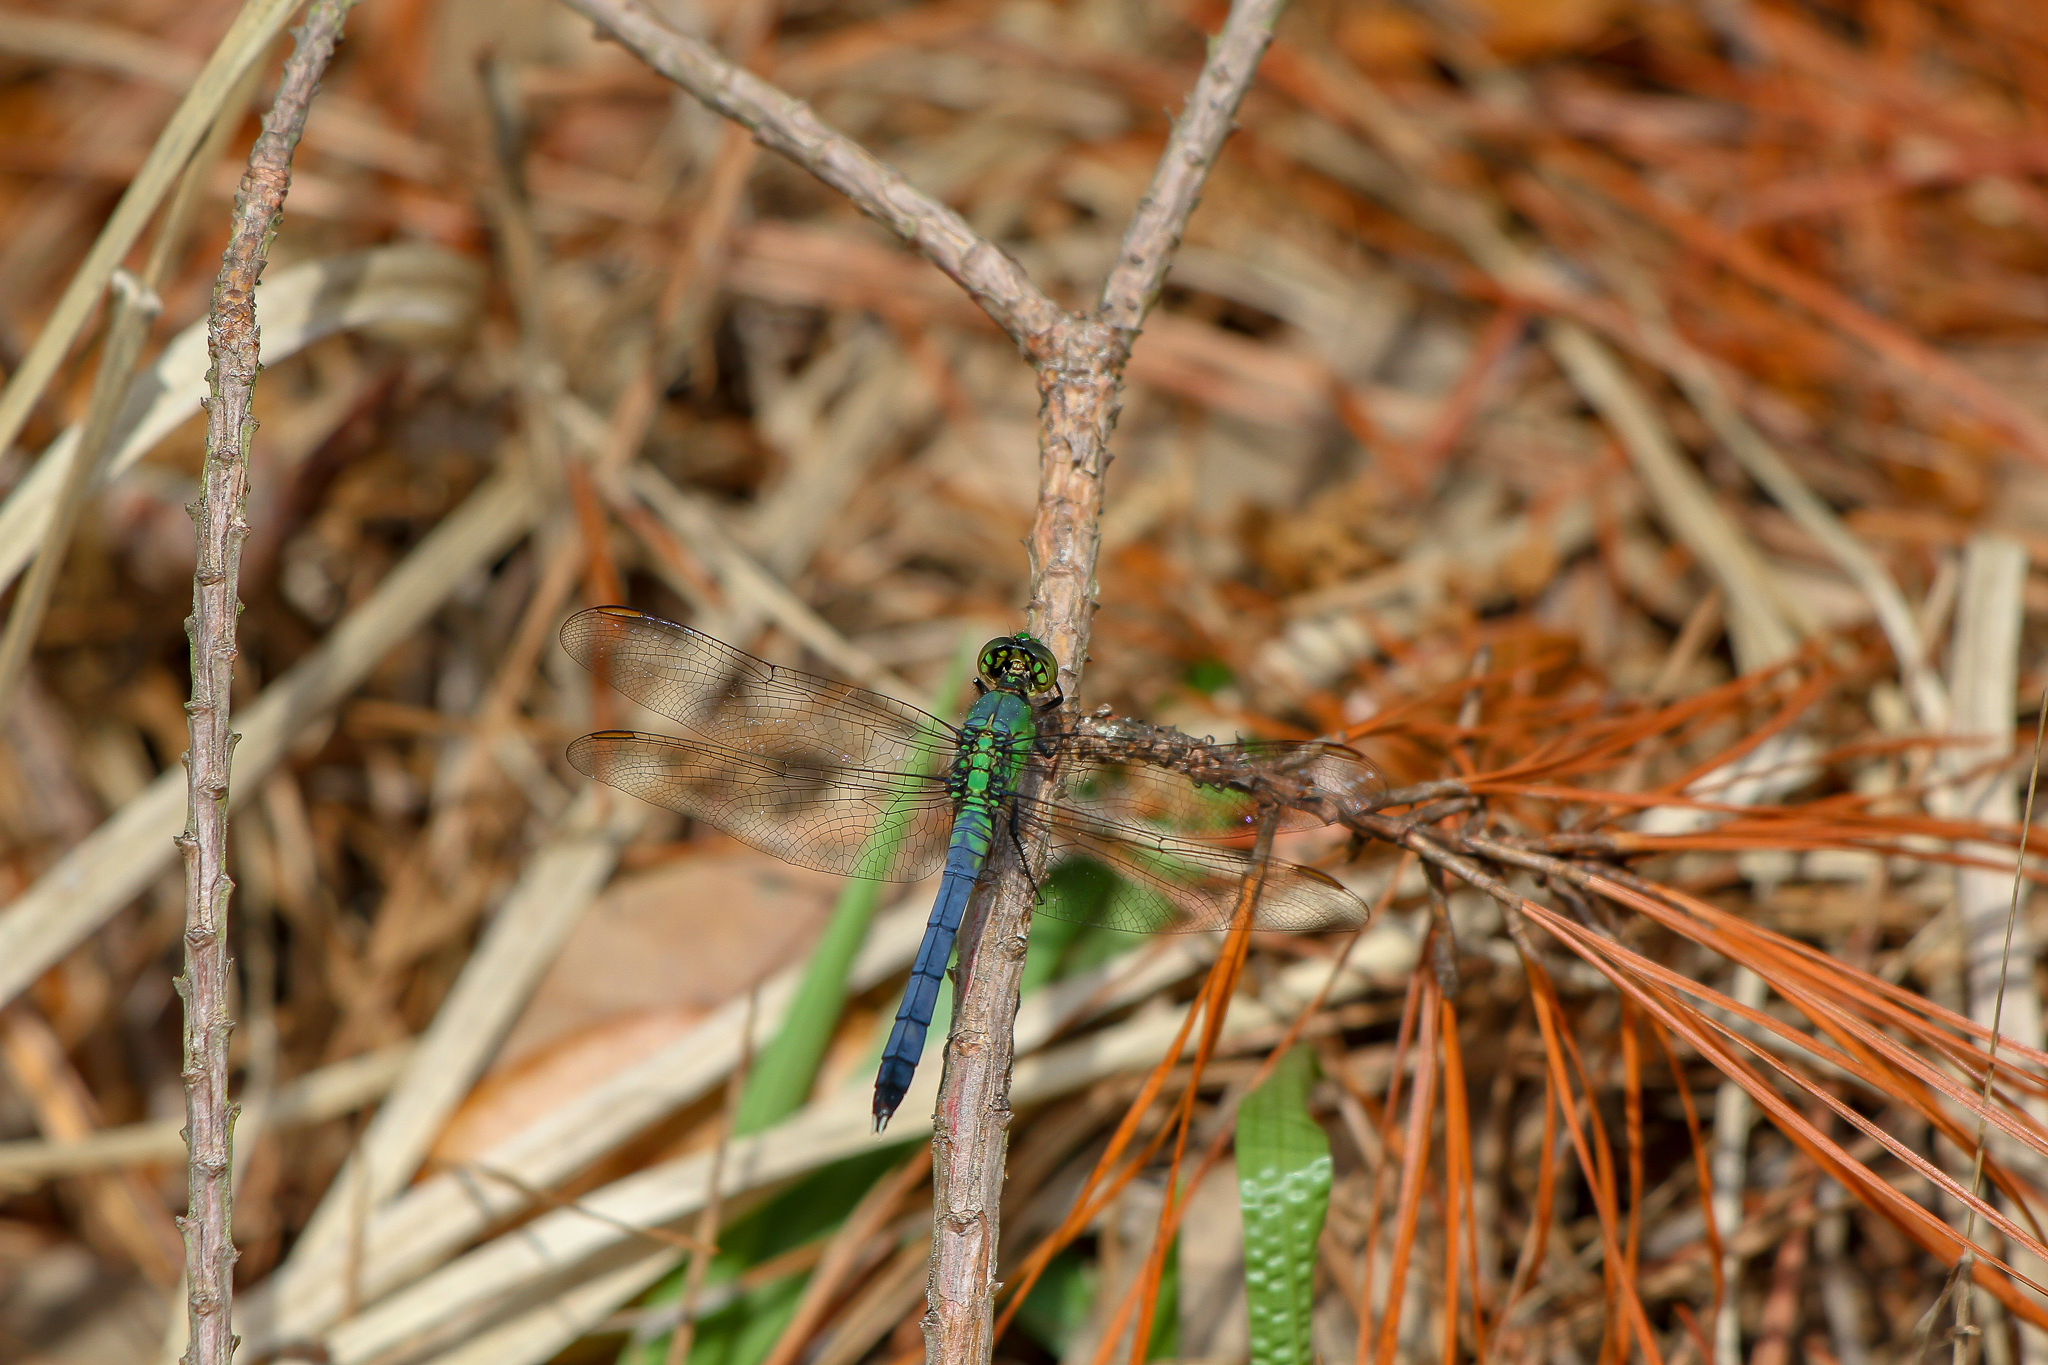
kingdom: Animalia
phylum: Arthropoda
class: Insecta
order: Odonata
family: Libellulidae
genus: Erythemis
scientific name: Erythemis simplicicollis
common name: Eastern pondhawk
